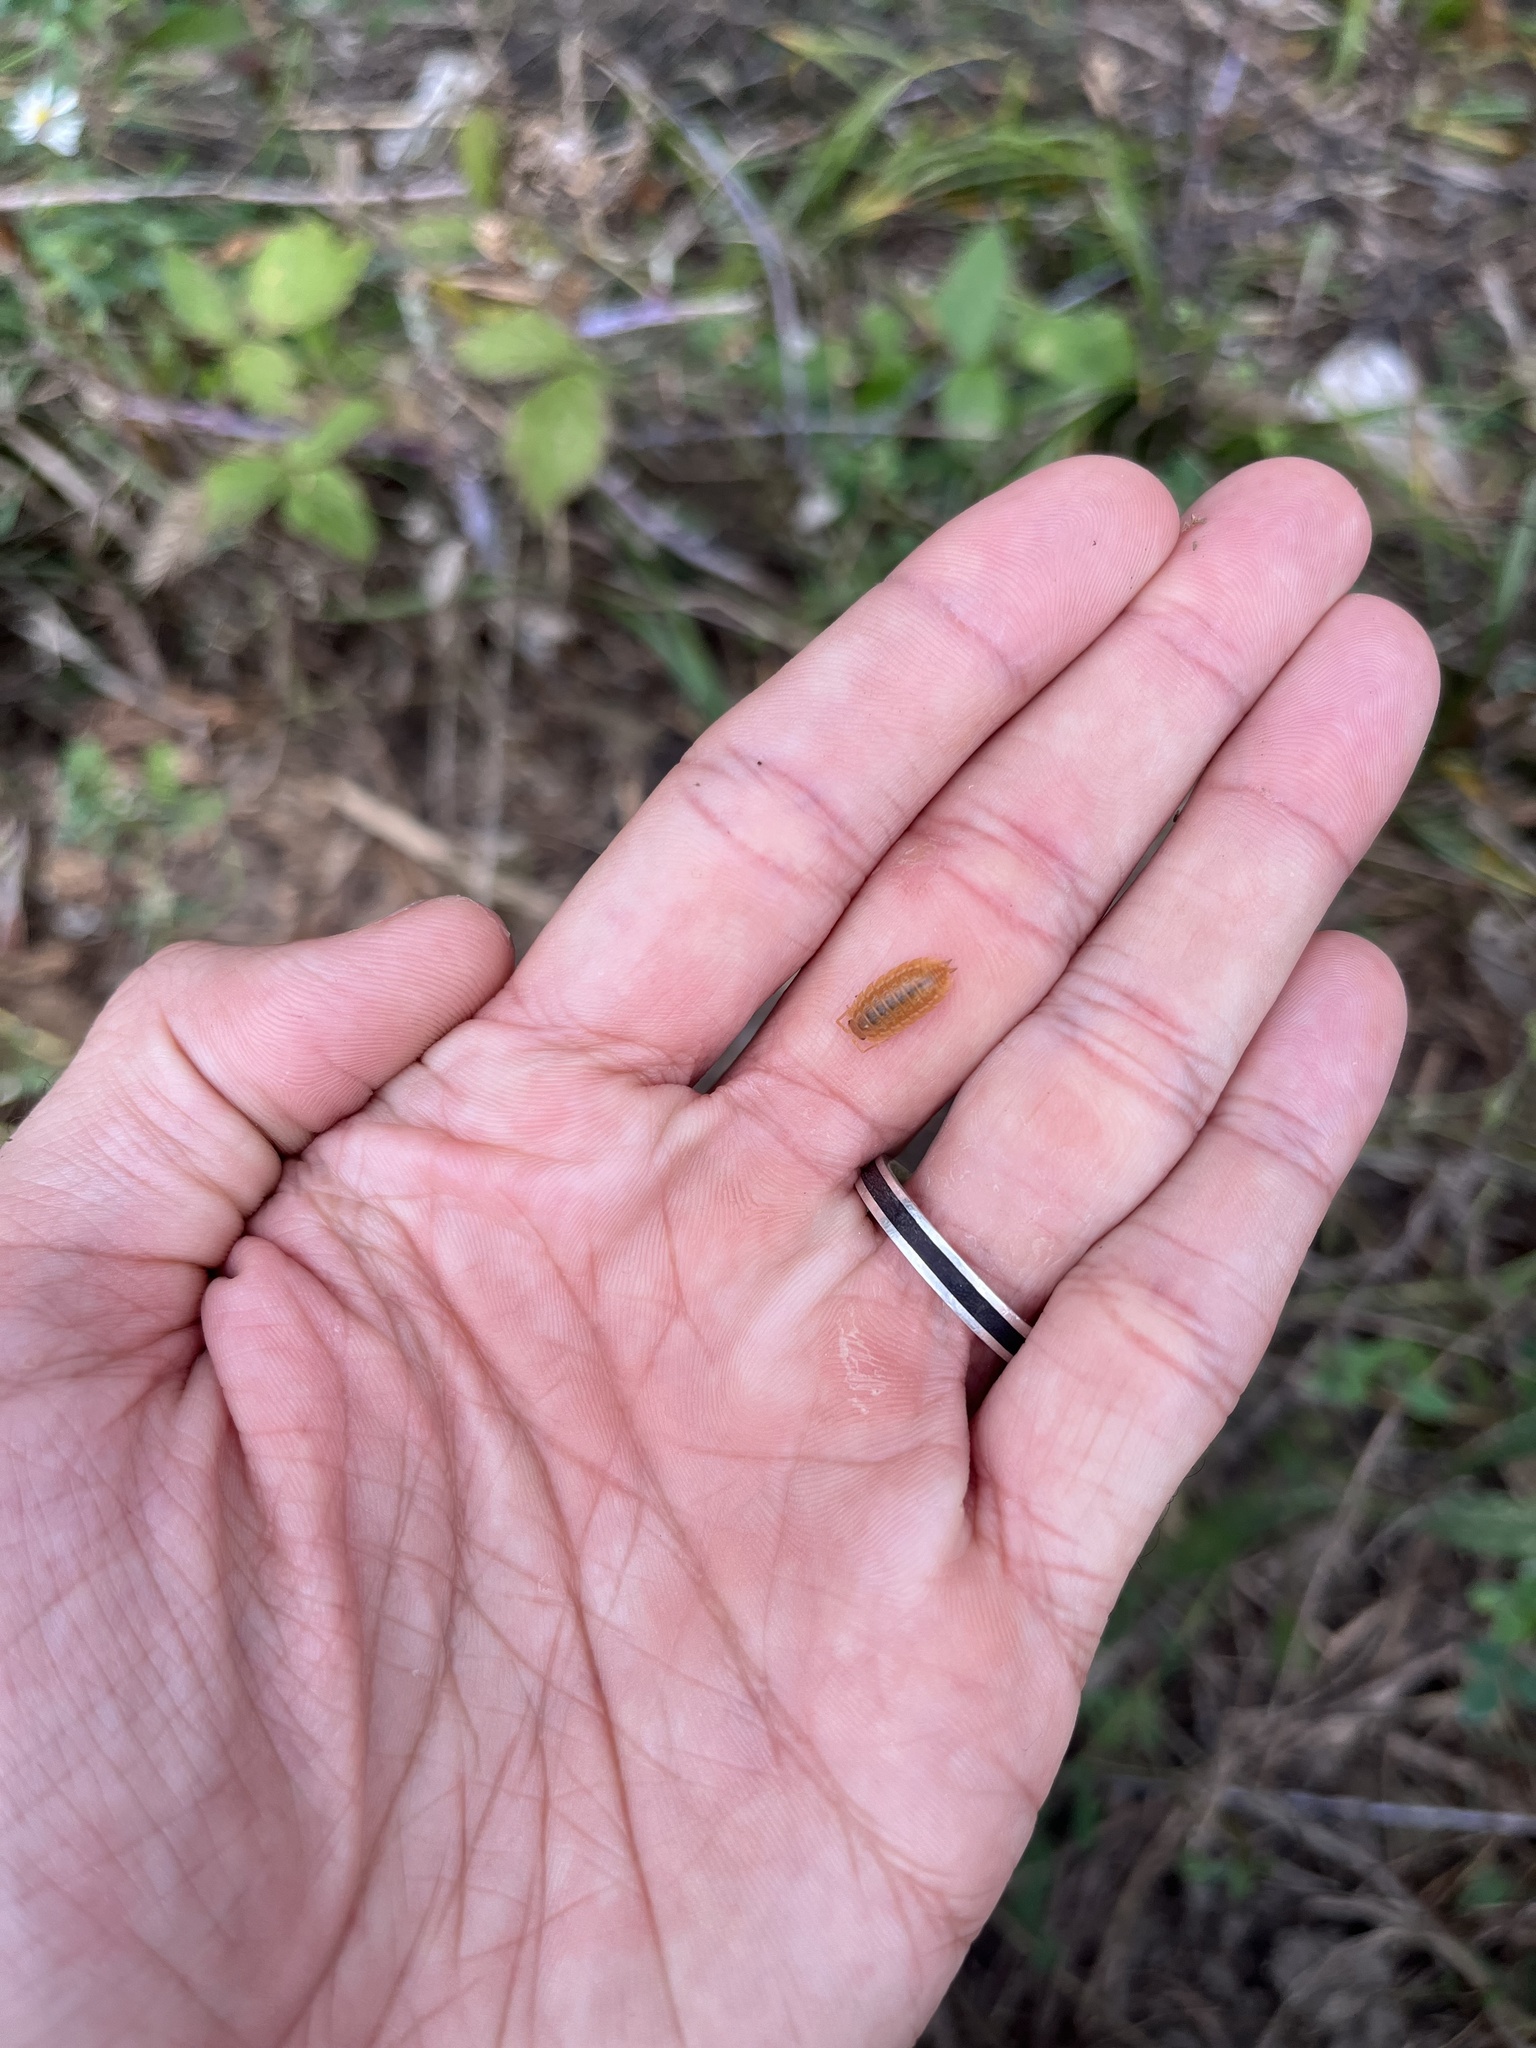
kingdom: Animalia
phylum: Arthropoda
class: Malacostraca
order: Isopoda
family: Trachelipodidae
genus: Trachelipus
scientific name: Trachelipus rathkii
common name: Isopod
